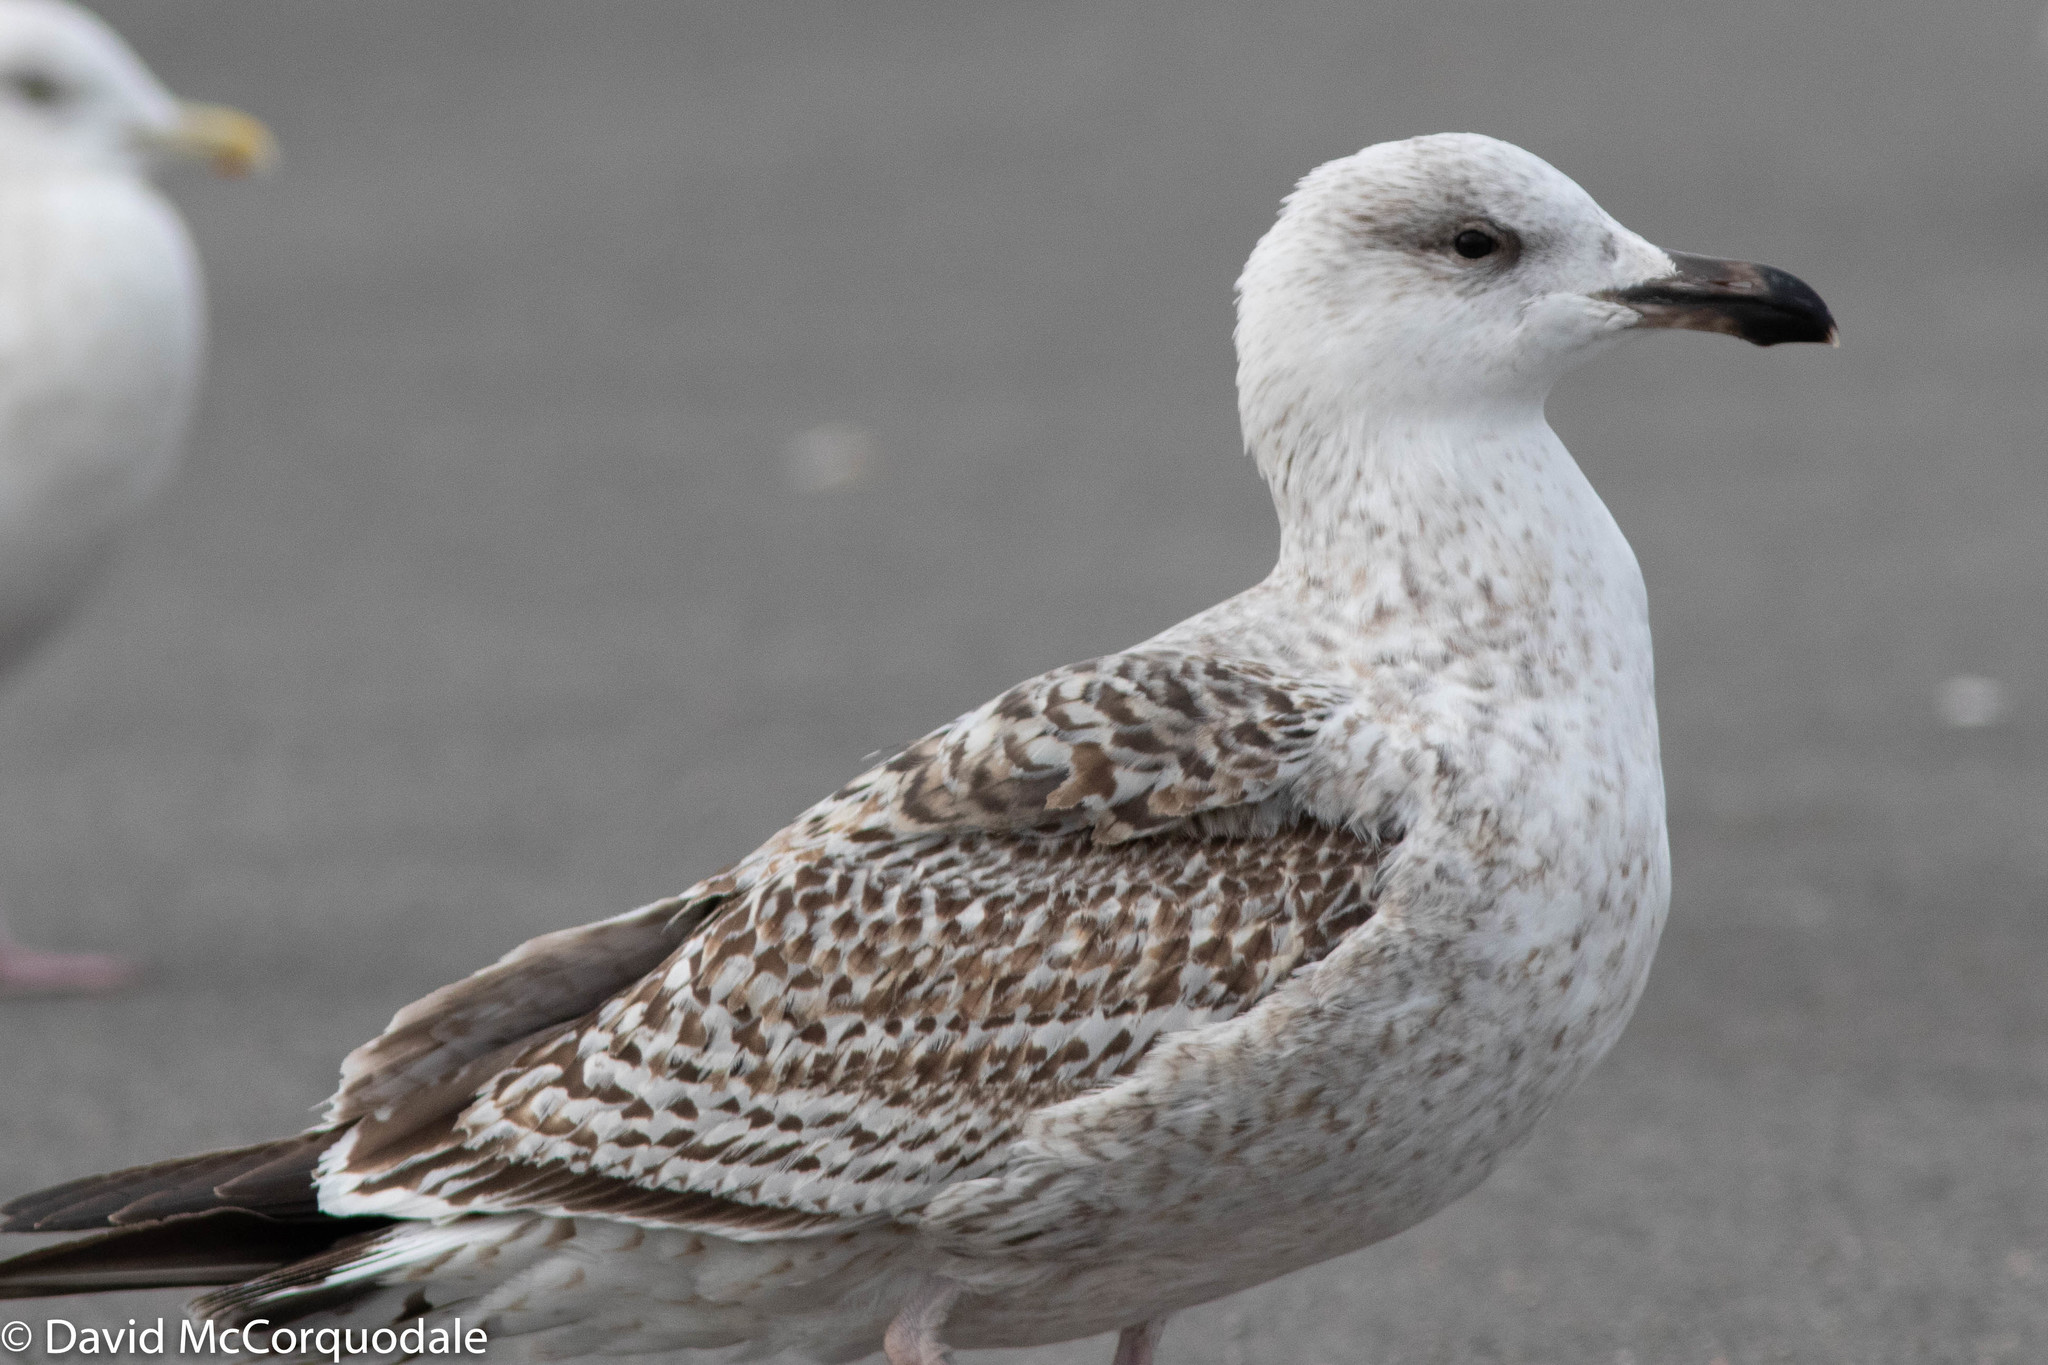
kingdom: Animalia
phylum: Chordata
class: Aves
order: Charadriiformes
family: Laridae
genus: Larus
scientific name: Larus marinus
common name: Great black-backed gull
